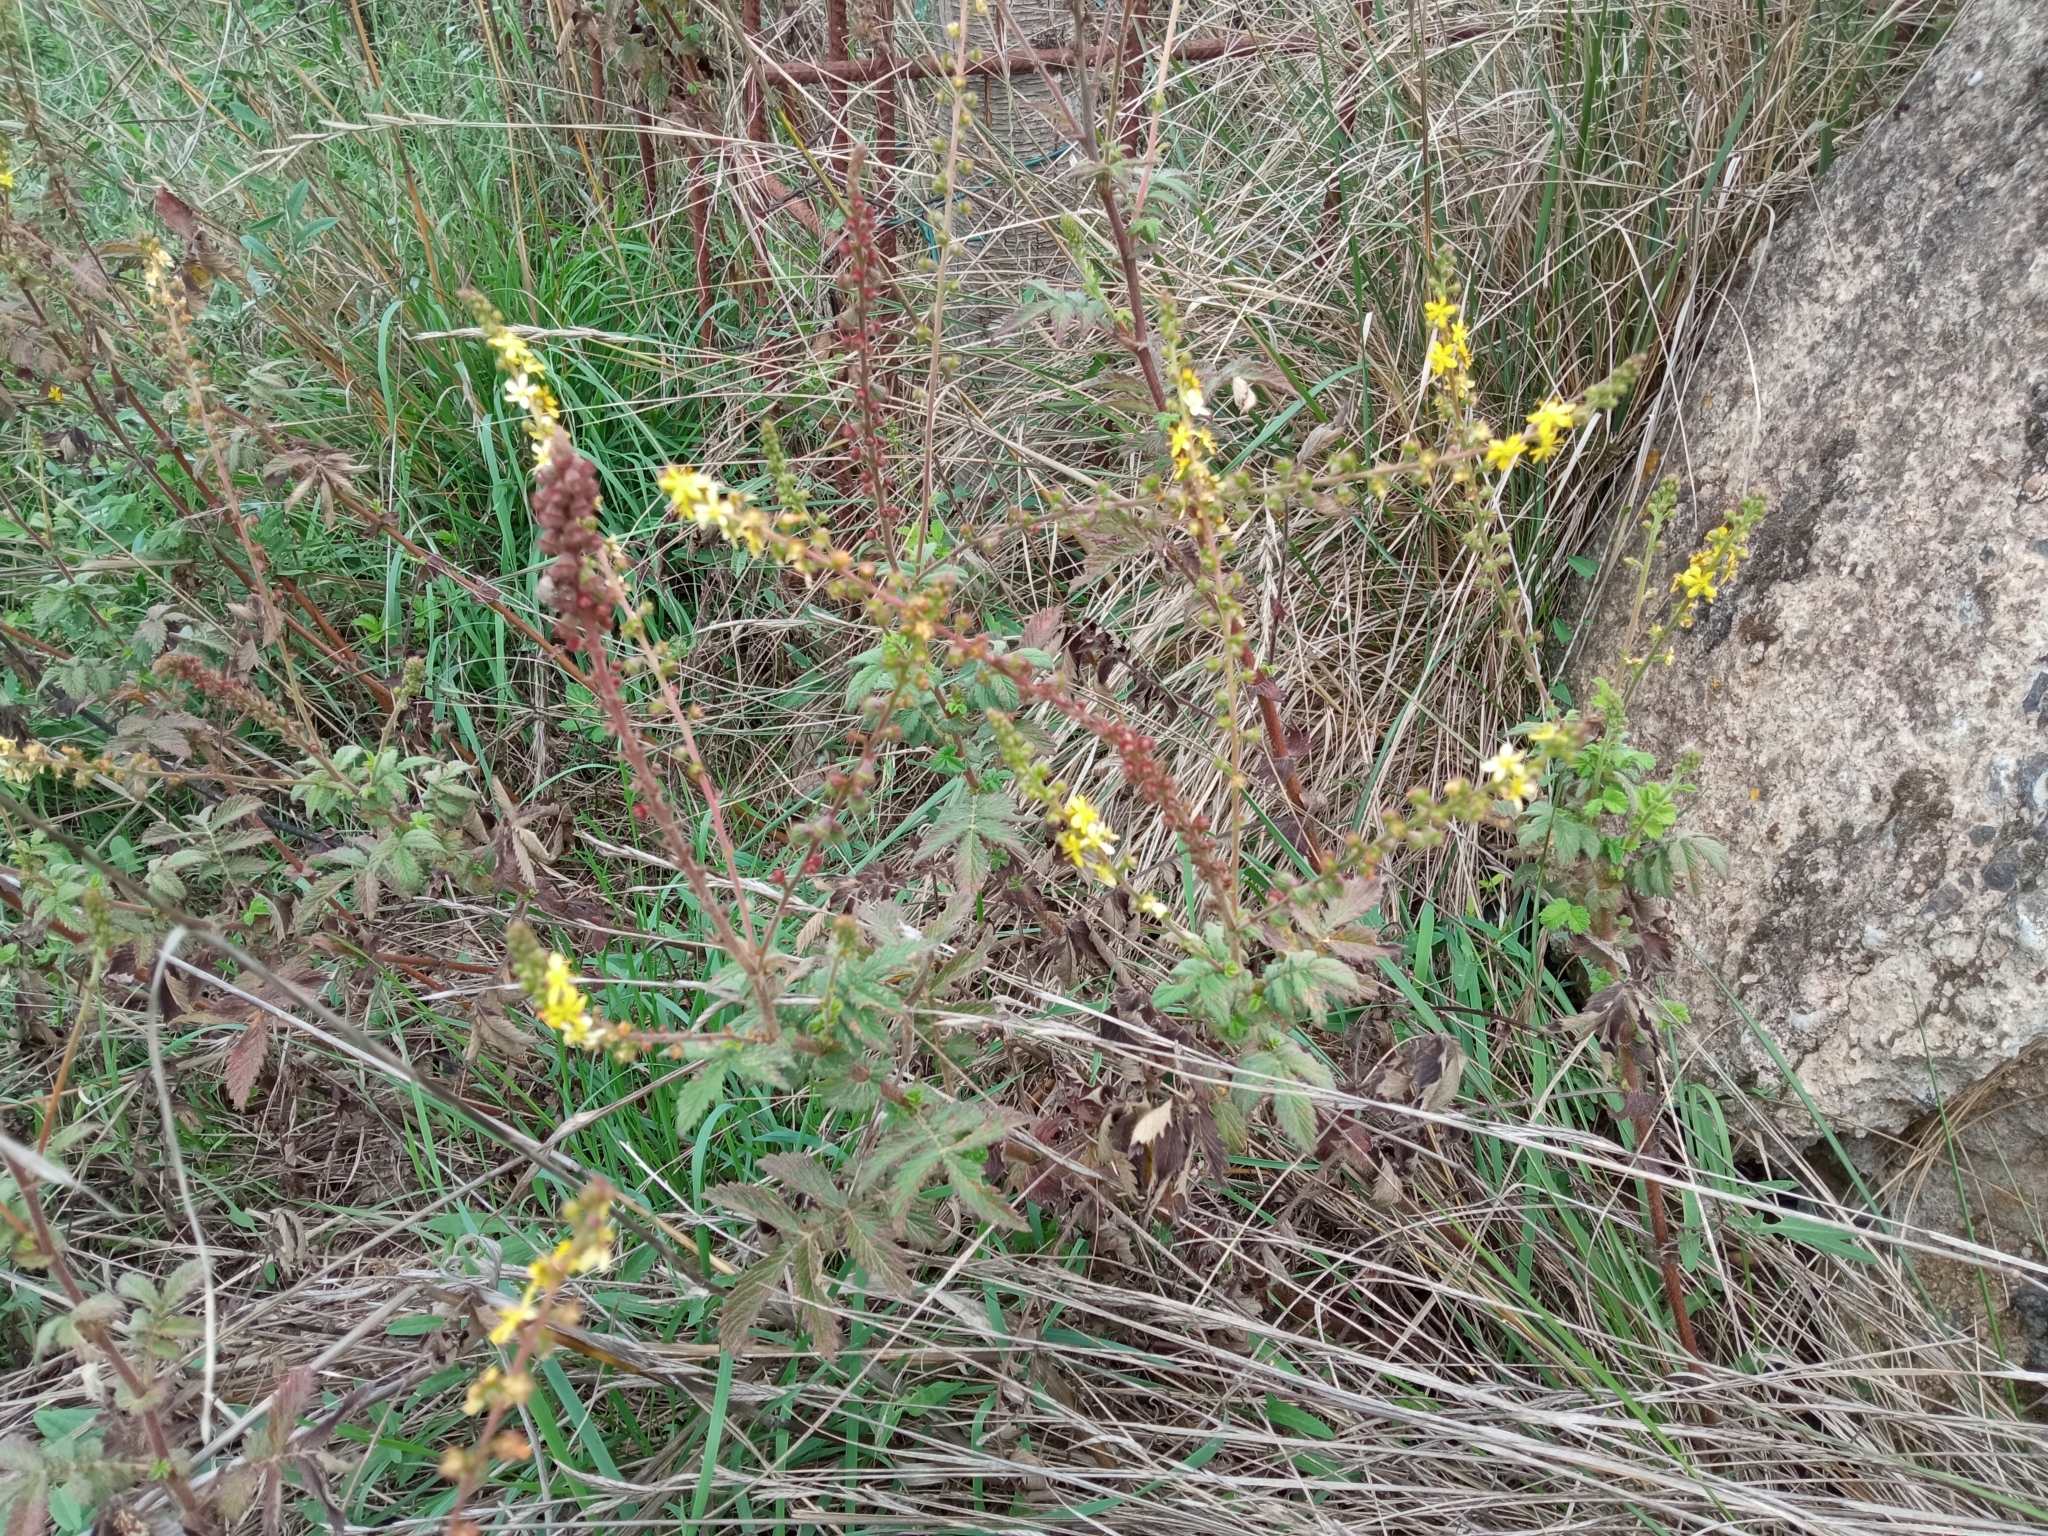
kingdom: Plantae
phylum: Tracheophyta
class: Magnoliopsida
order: Rosales
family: Rosaceae
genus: Agrimonia
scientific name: Agrimonia eupatoria
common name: Agrimony
